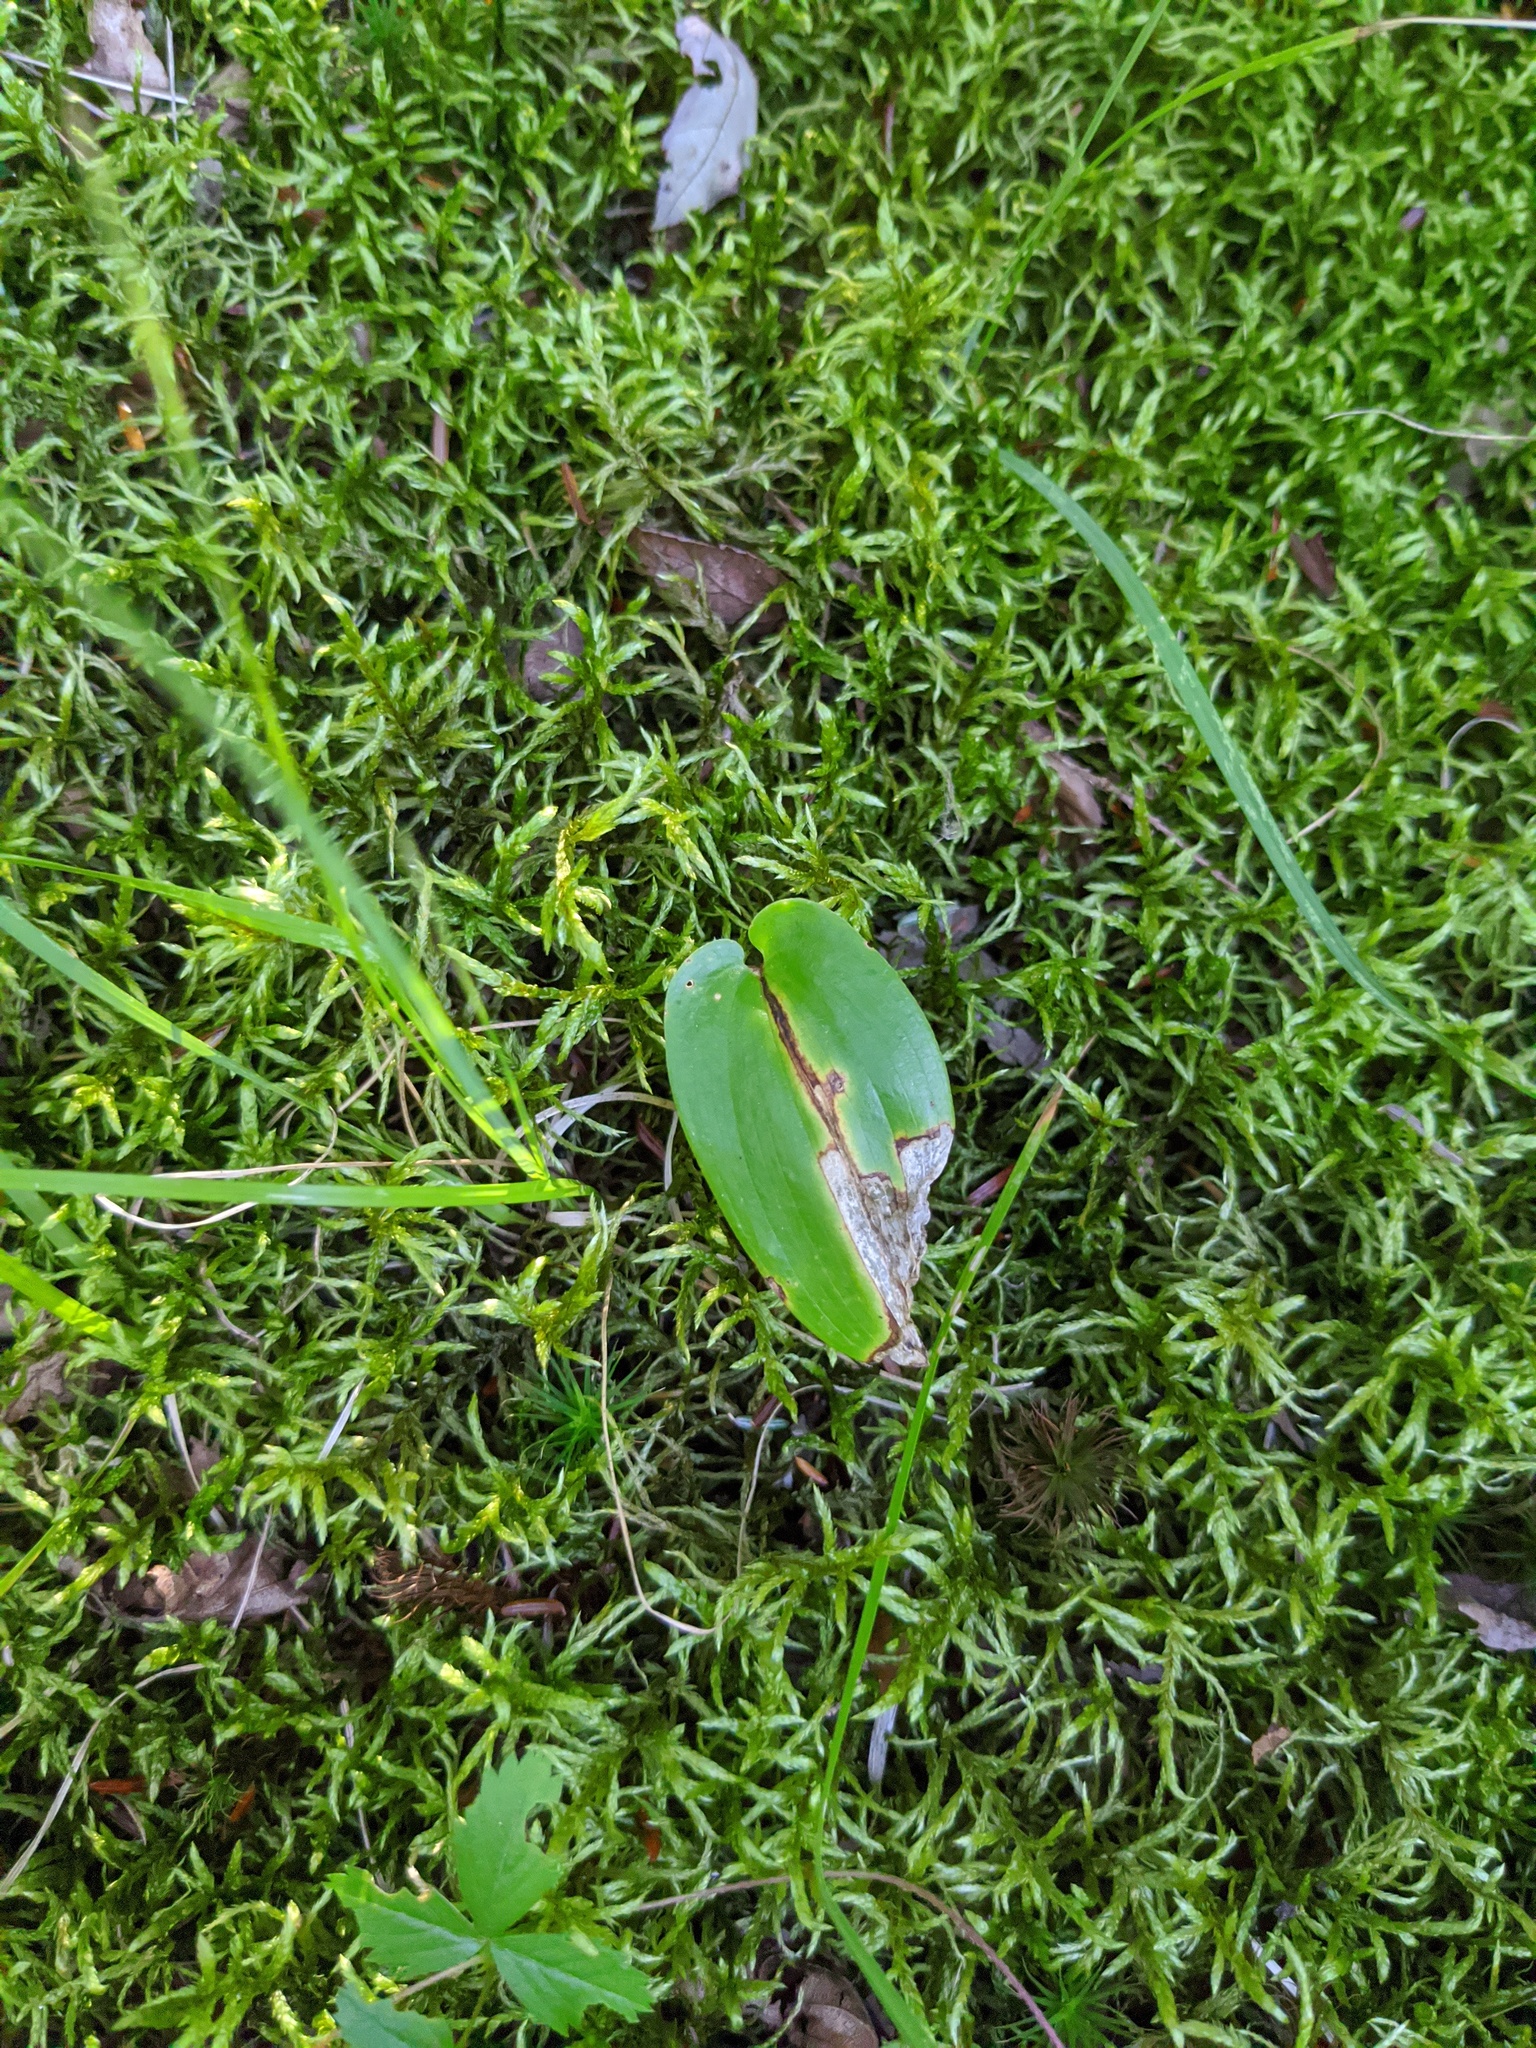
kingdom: Plantae
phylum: Tracheophyta
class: Liliopsida
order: Asparagales
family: Asparagaceae
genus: Maianthemum
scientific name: Maianthemum canadense
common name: False lily-of-the-valley
